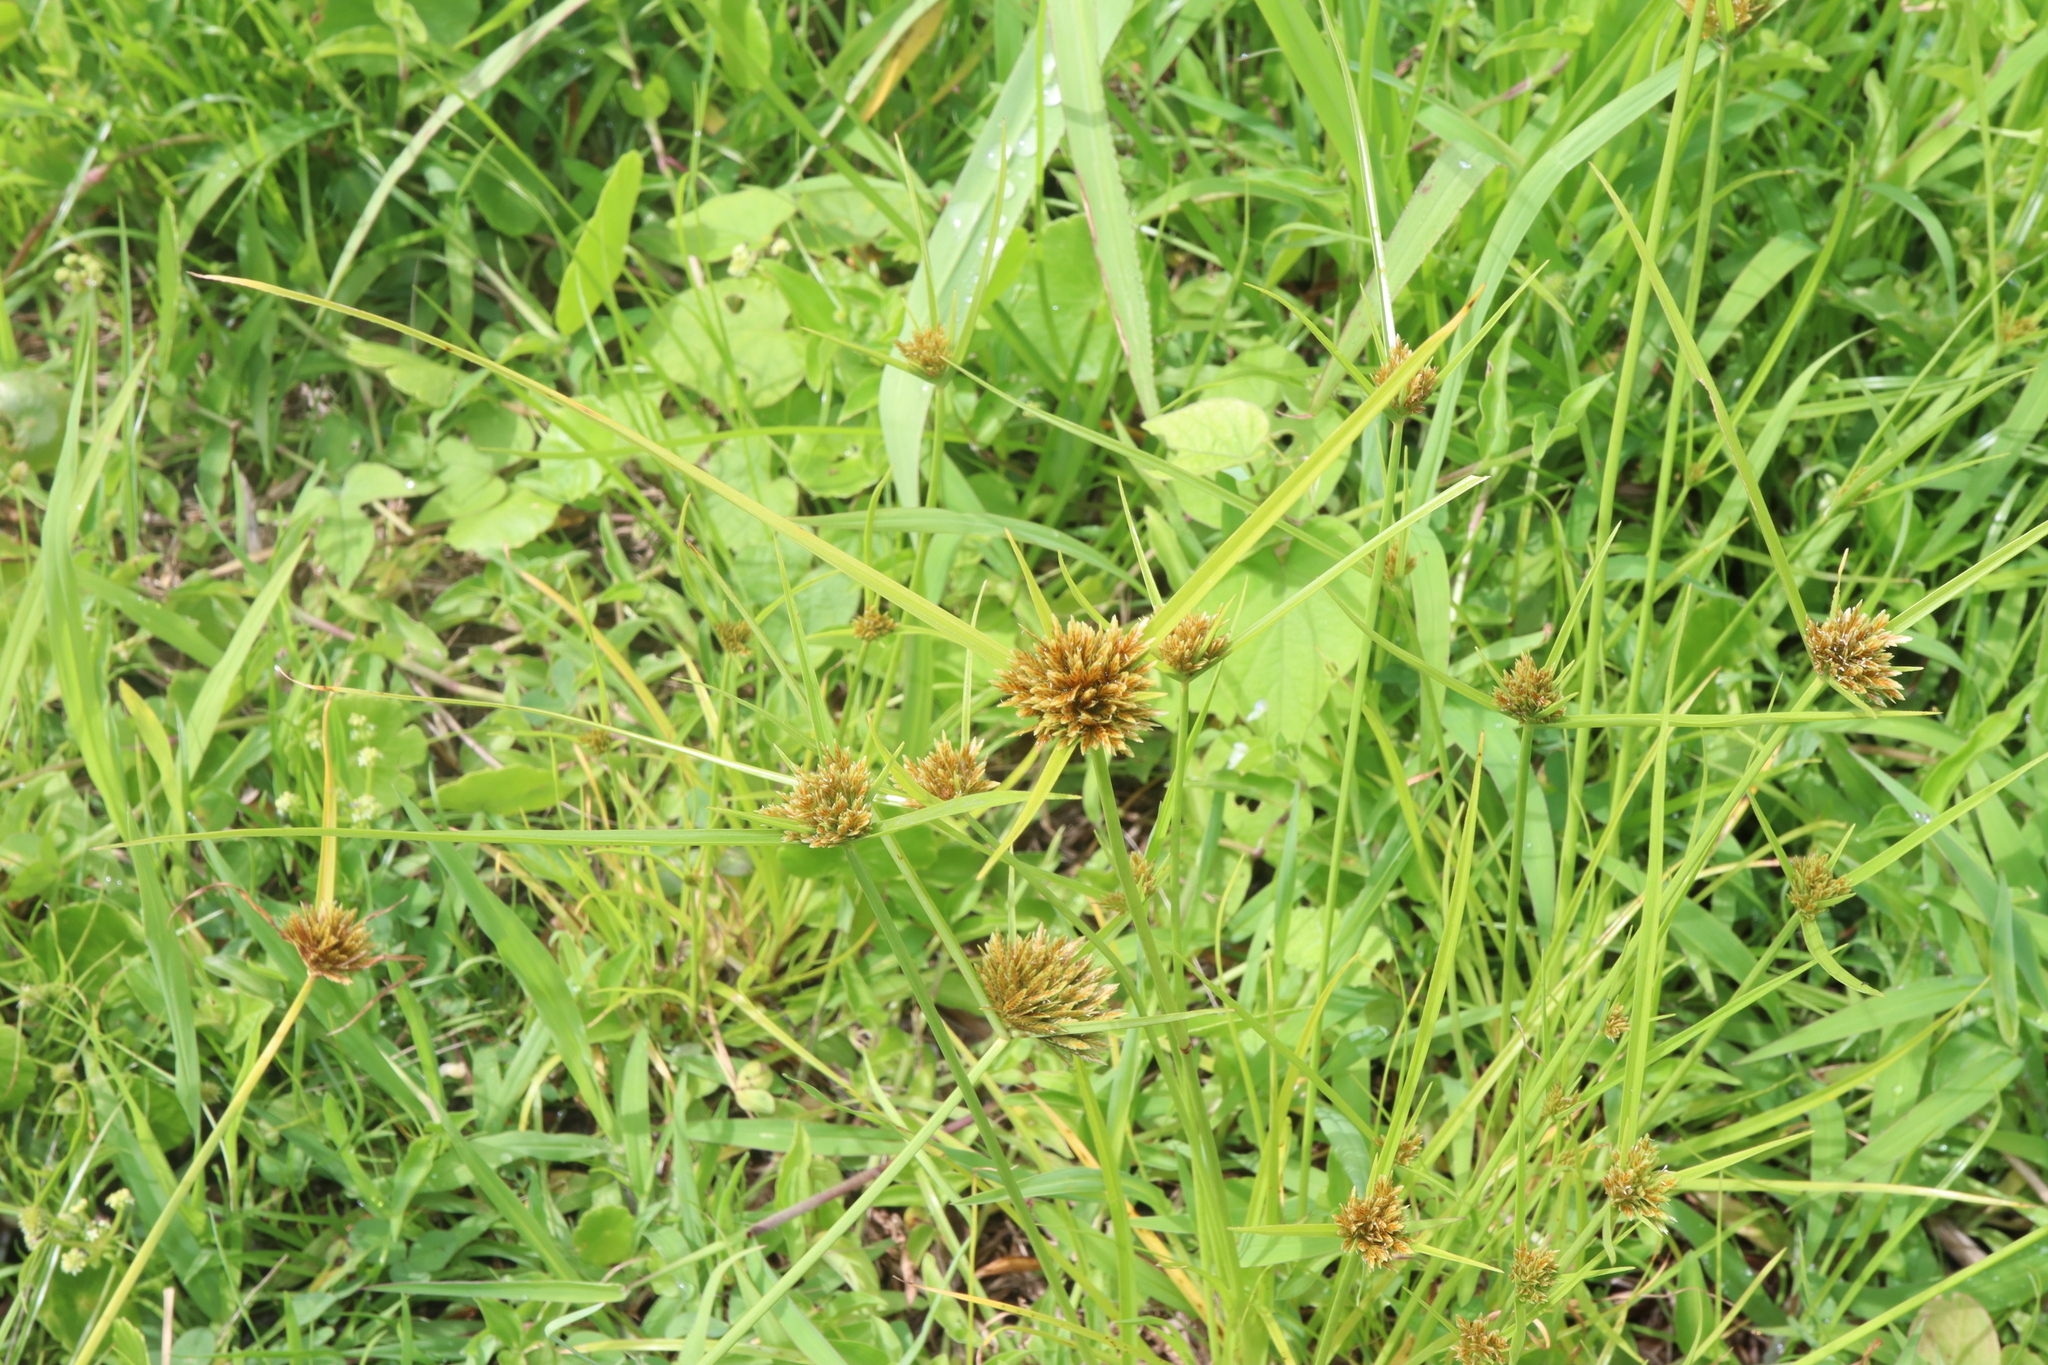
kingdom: Plantae
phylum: Tracheophyta
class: Liliopsida
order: Poales
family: Cyperaceae
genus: Cyperus
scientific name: Cyperus polystachyos
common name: Bunchy flat sedge
